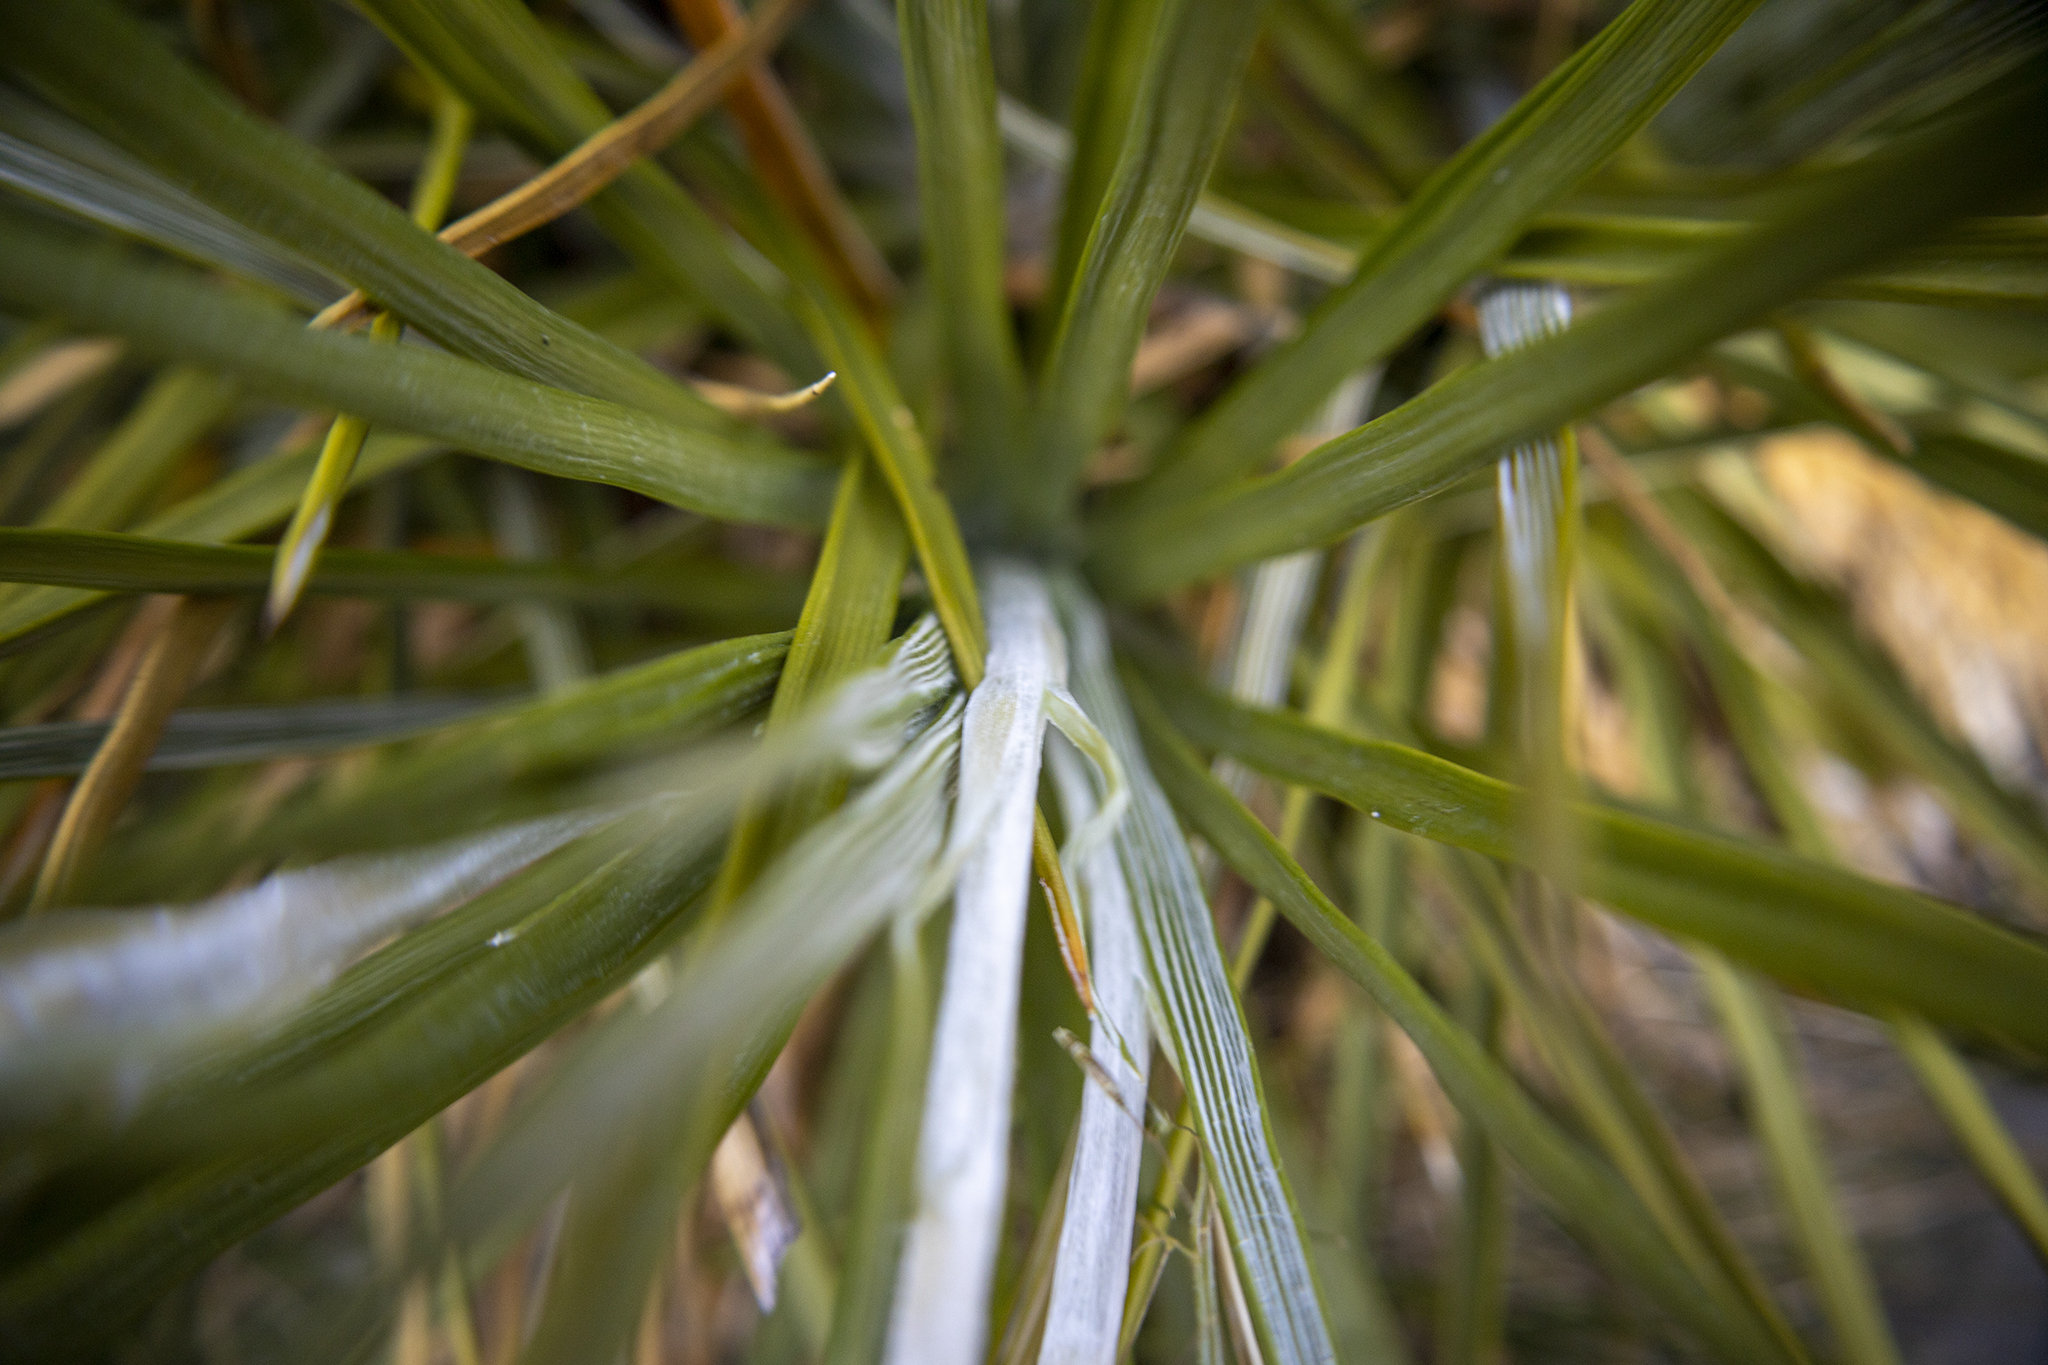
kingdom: Plantae
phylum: Tracheophyta
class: Magnoliopsida
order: Asterales
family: Asteraceae
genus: Celmisia
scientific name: Celmisia lyallii
